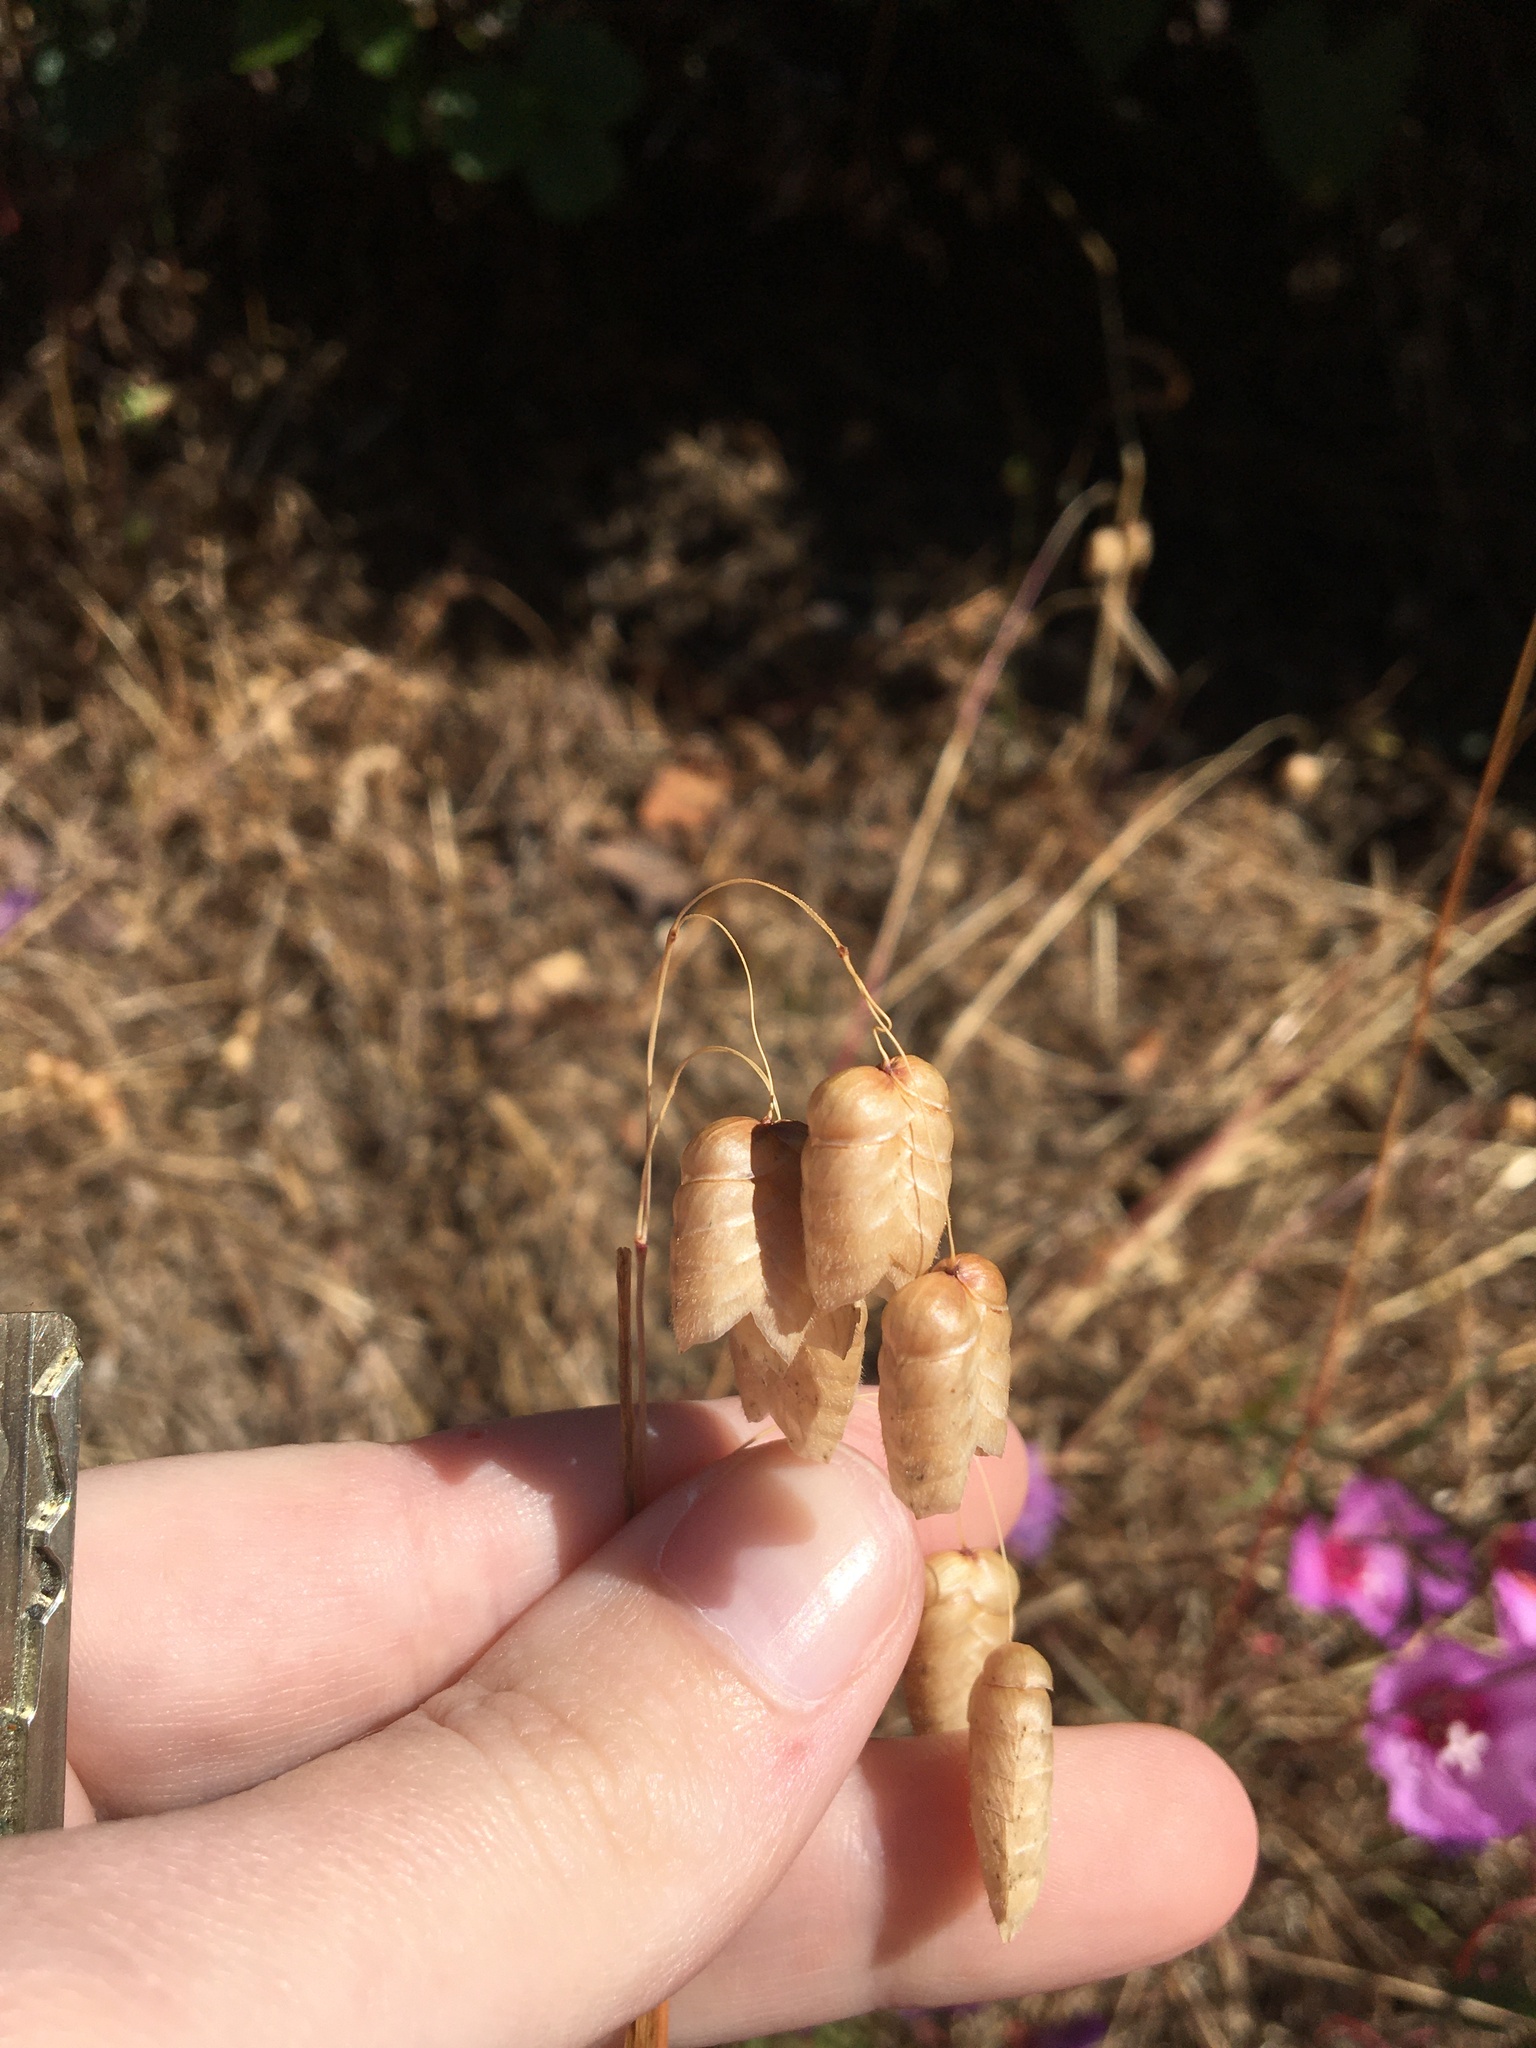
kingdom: Plantae
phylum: Tracheophyta
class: Liliopsida
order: Poales
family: Poaceae
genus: Briza
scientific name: Briza maxima
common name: Big quakinggrass
